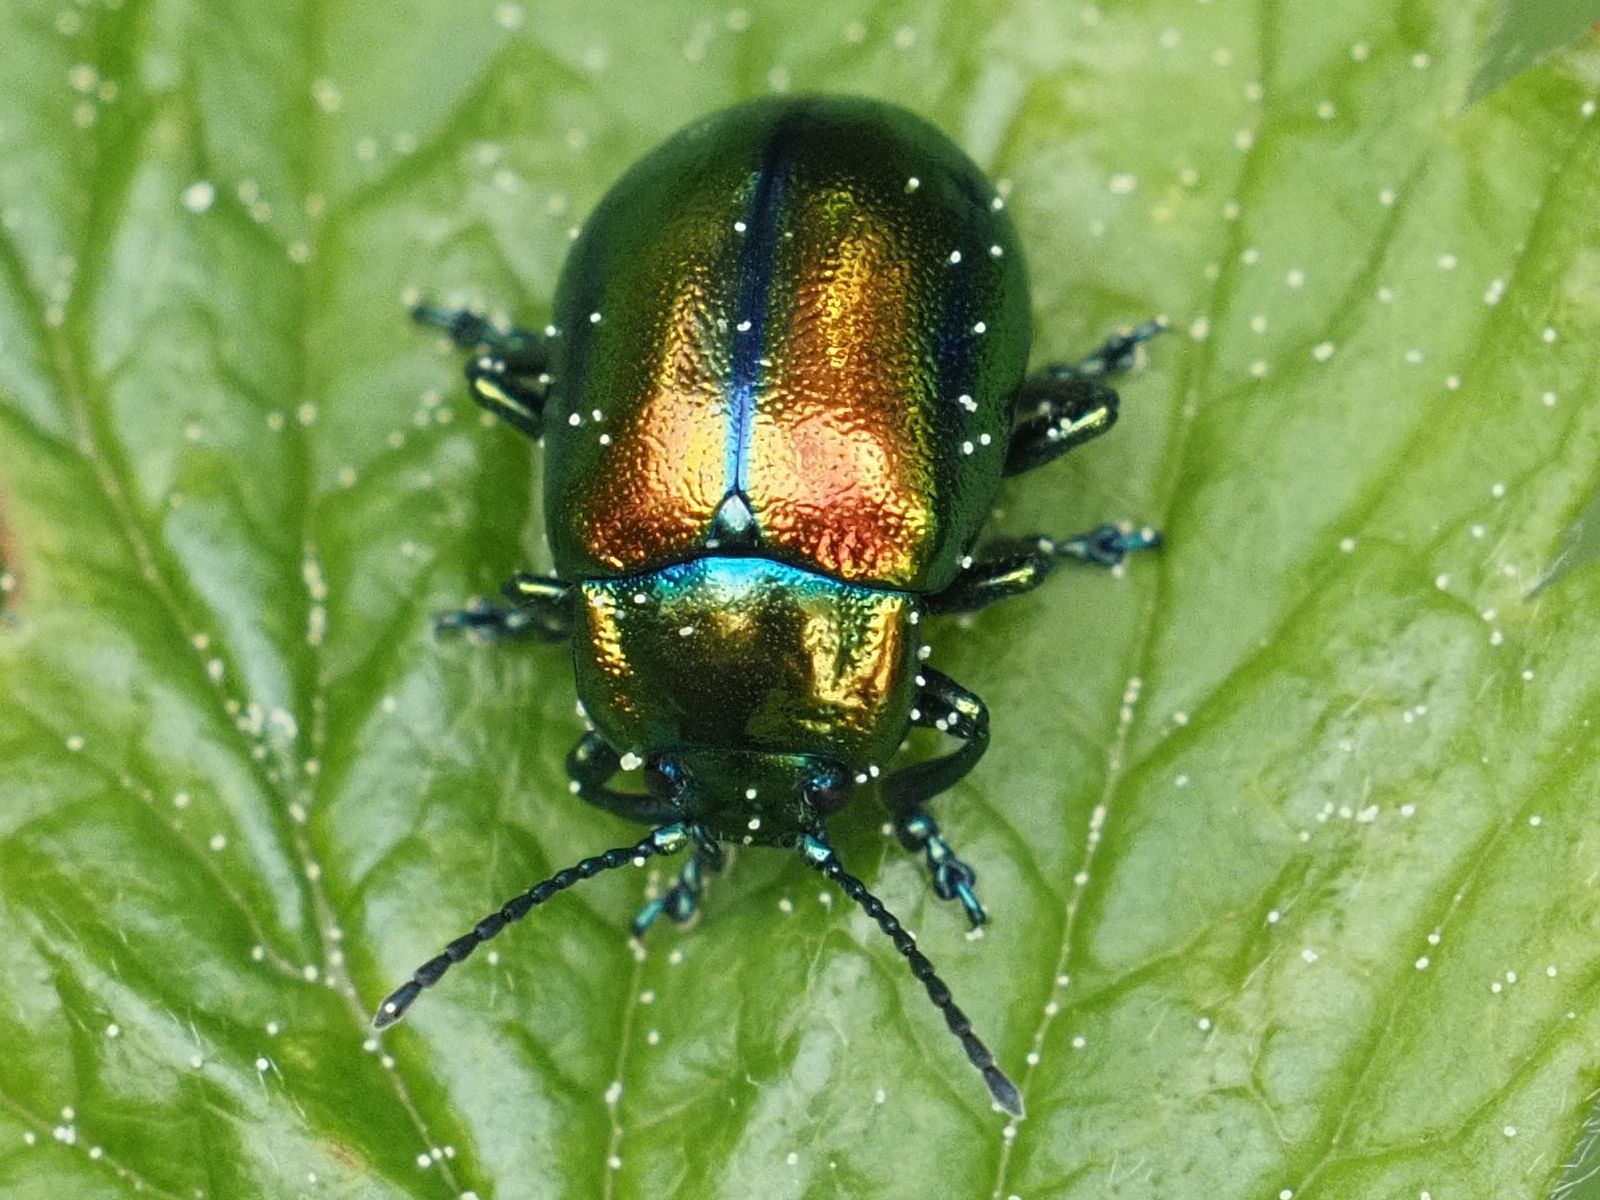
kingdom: Animalia
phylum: Arthropoda
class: Insecta
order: Coleoptera
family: Chrysomelidae
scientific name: Chrysomelidae
